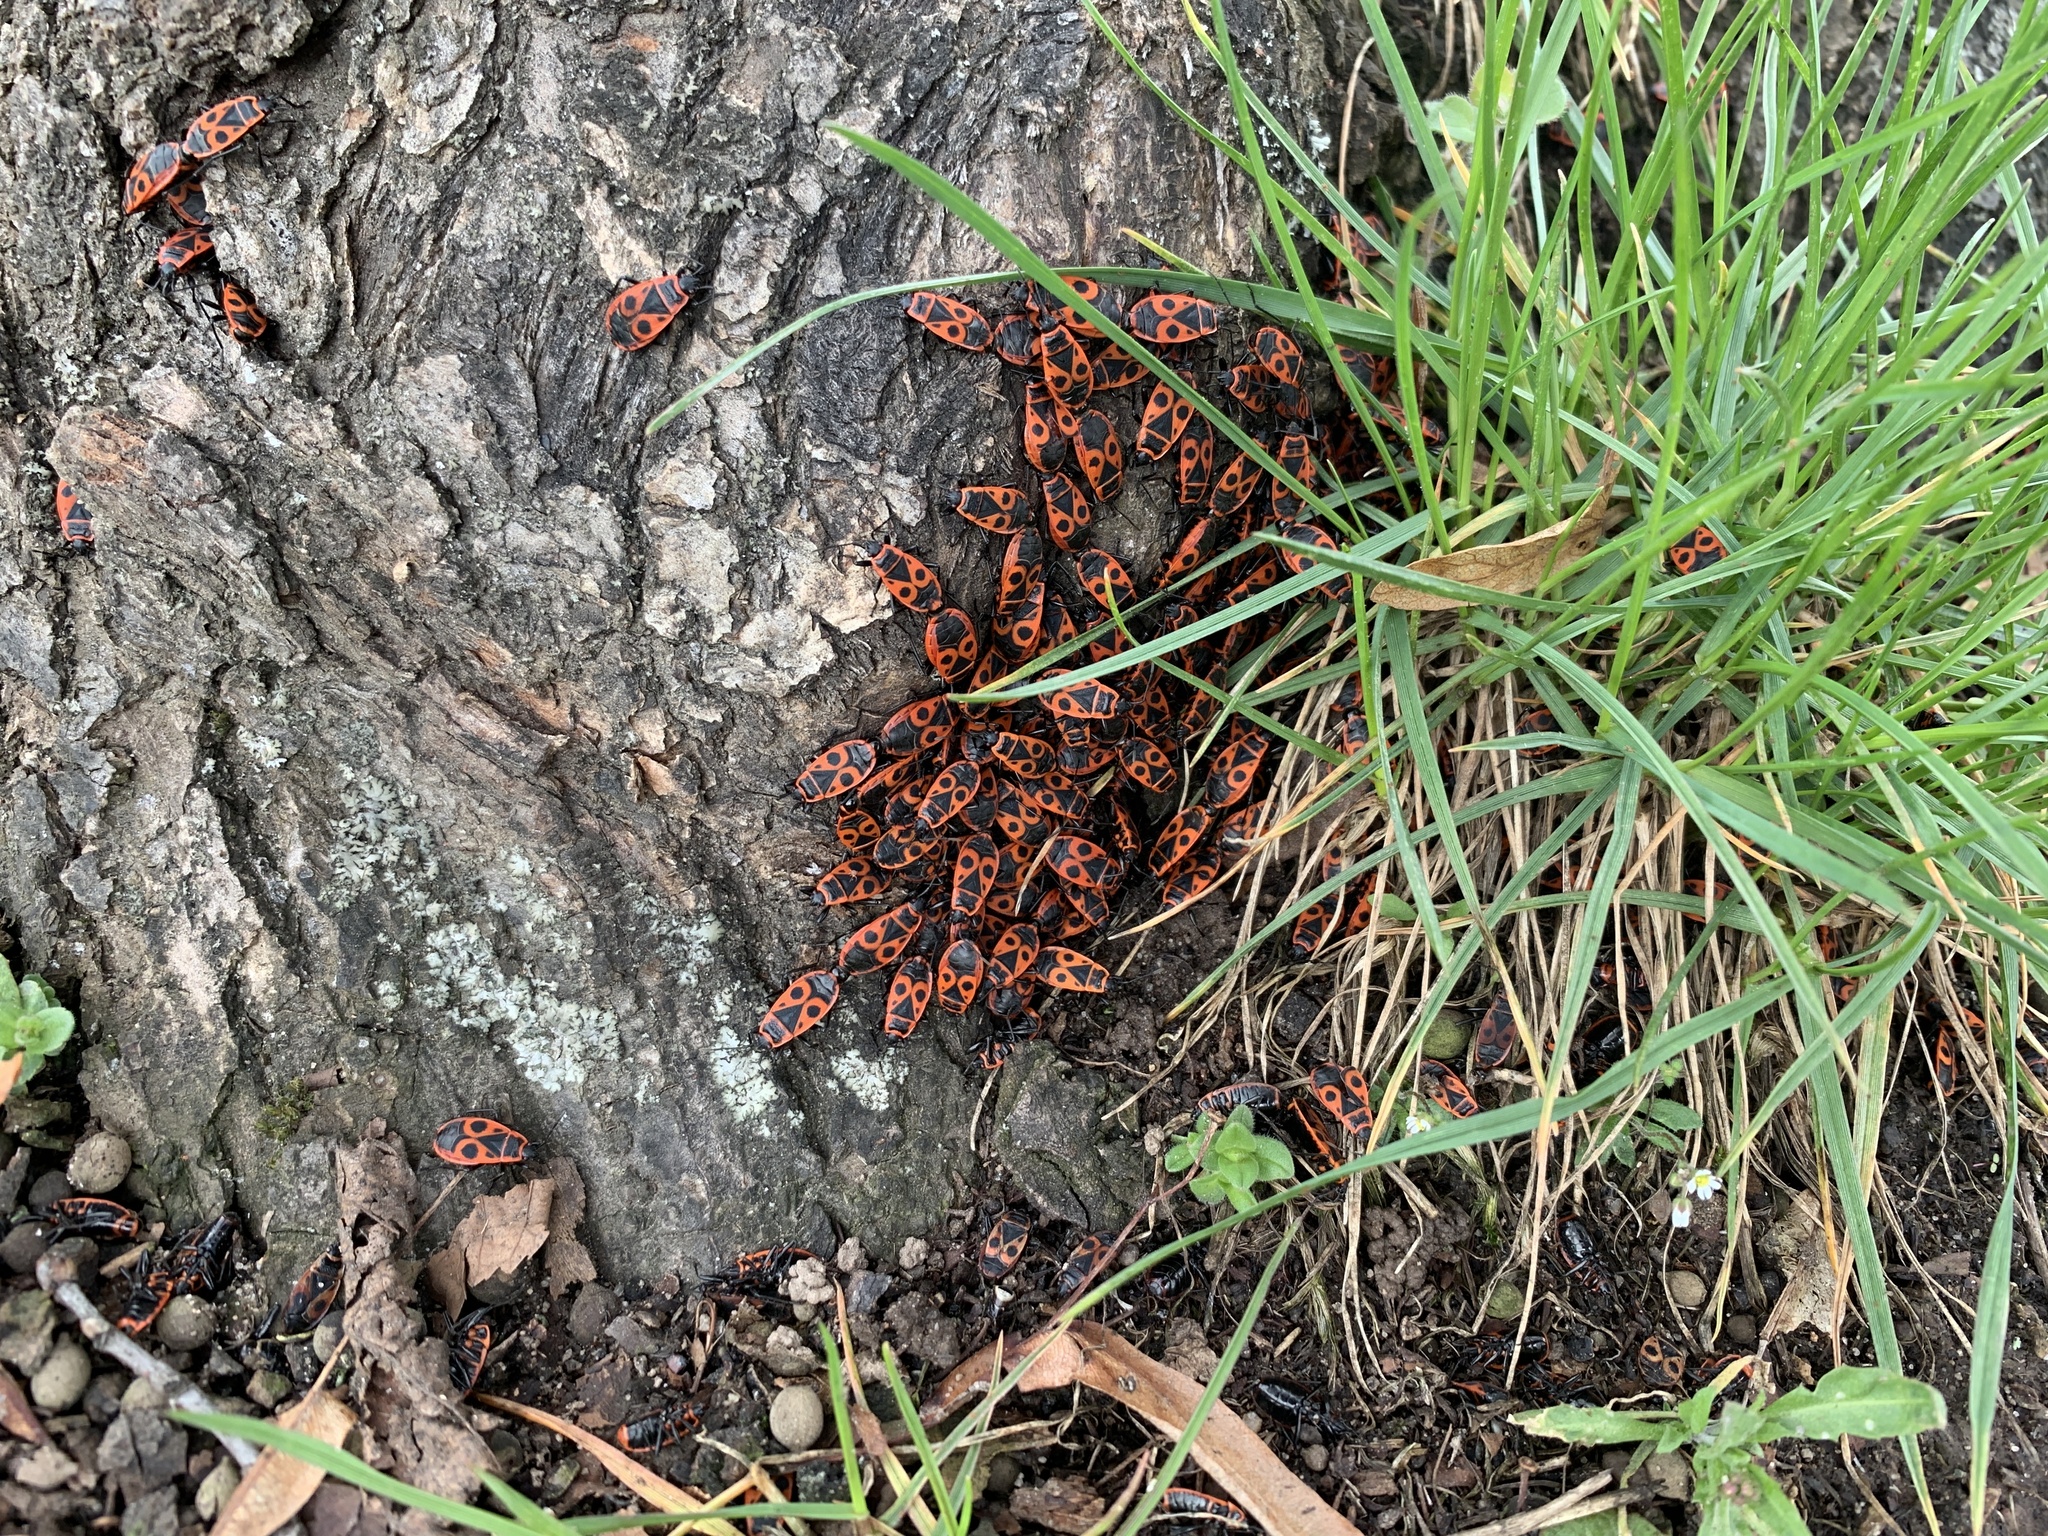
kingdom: Animalia
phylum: Arthropoda
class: Insecta
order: Hemiptera
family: Pyrrhocoridae
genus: Pyrrhocoris
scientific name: Pyrrhocoris apterus
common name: Firebug
